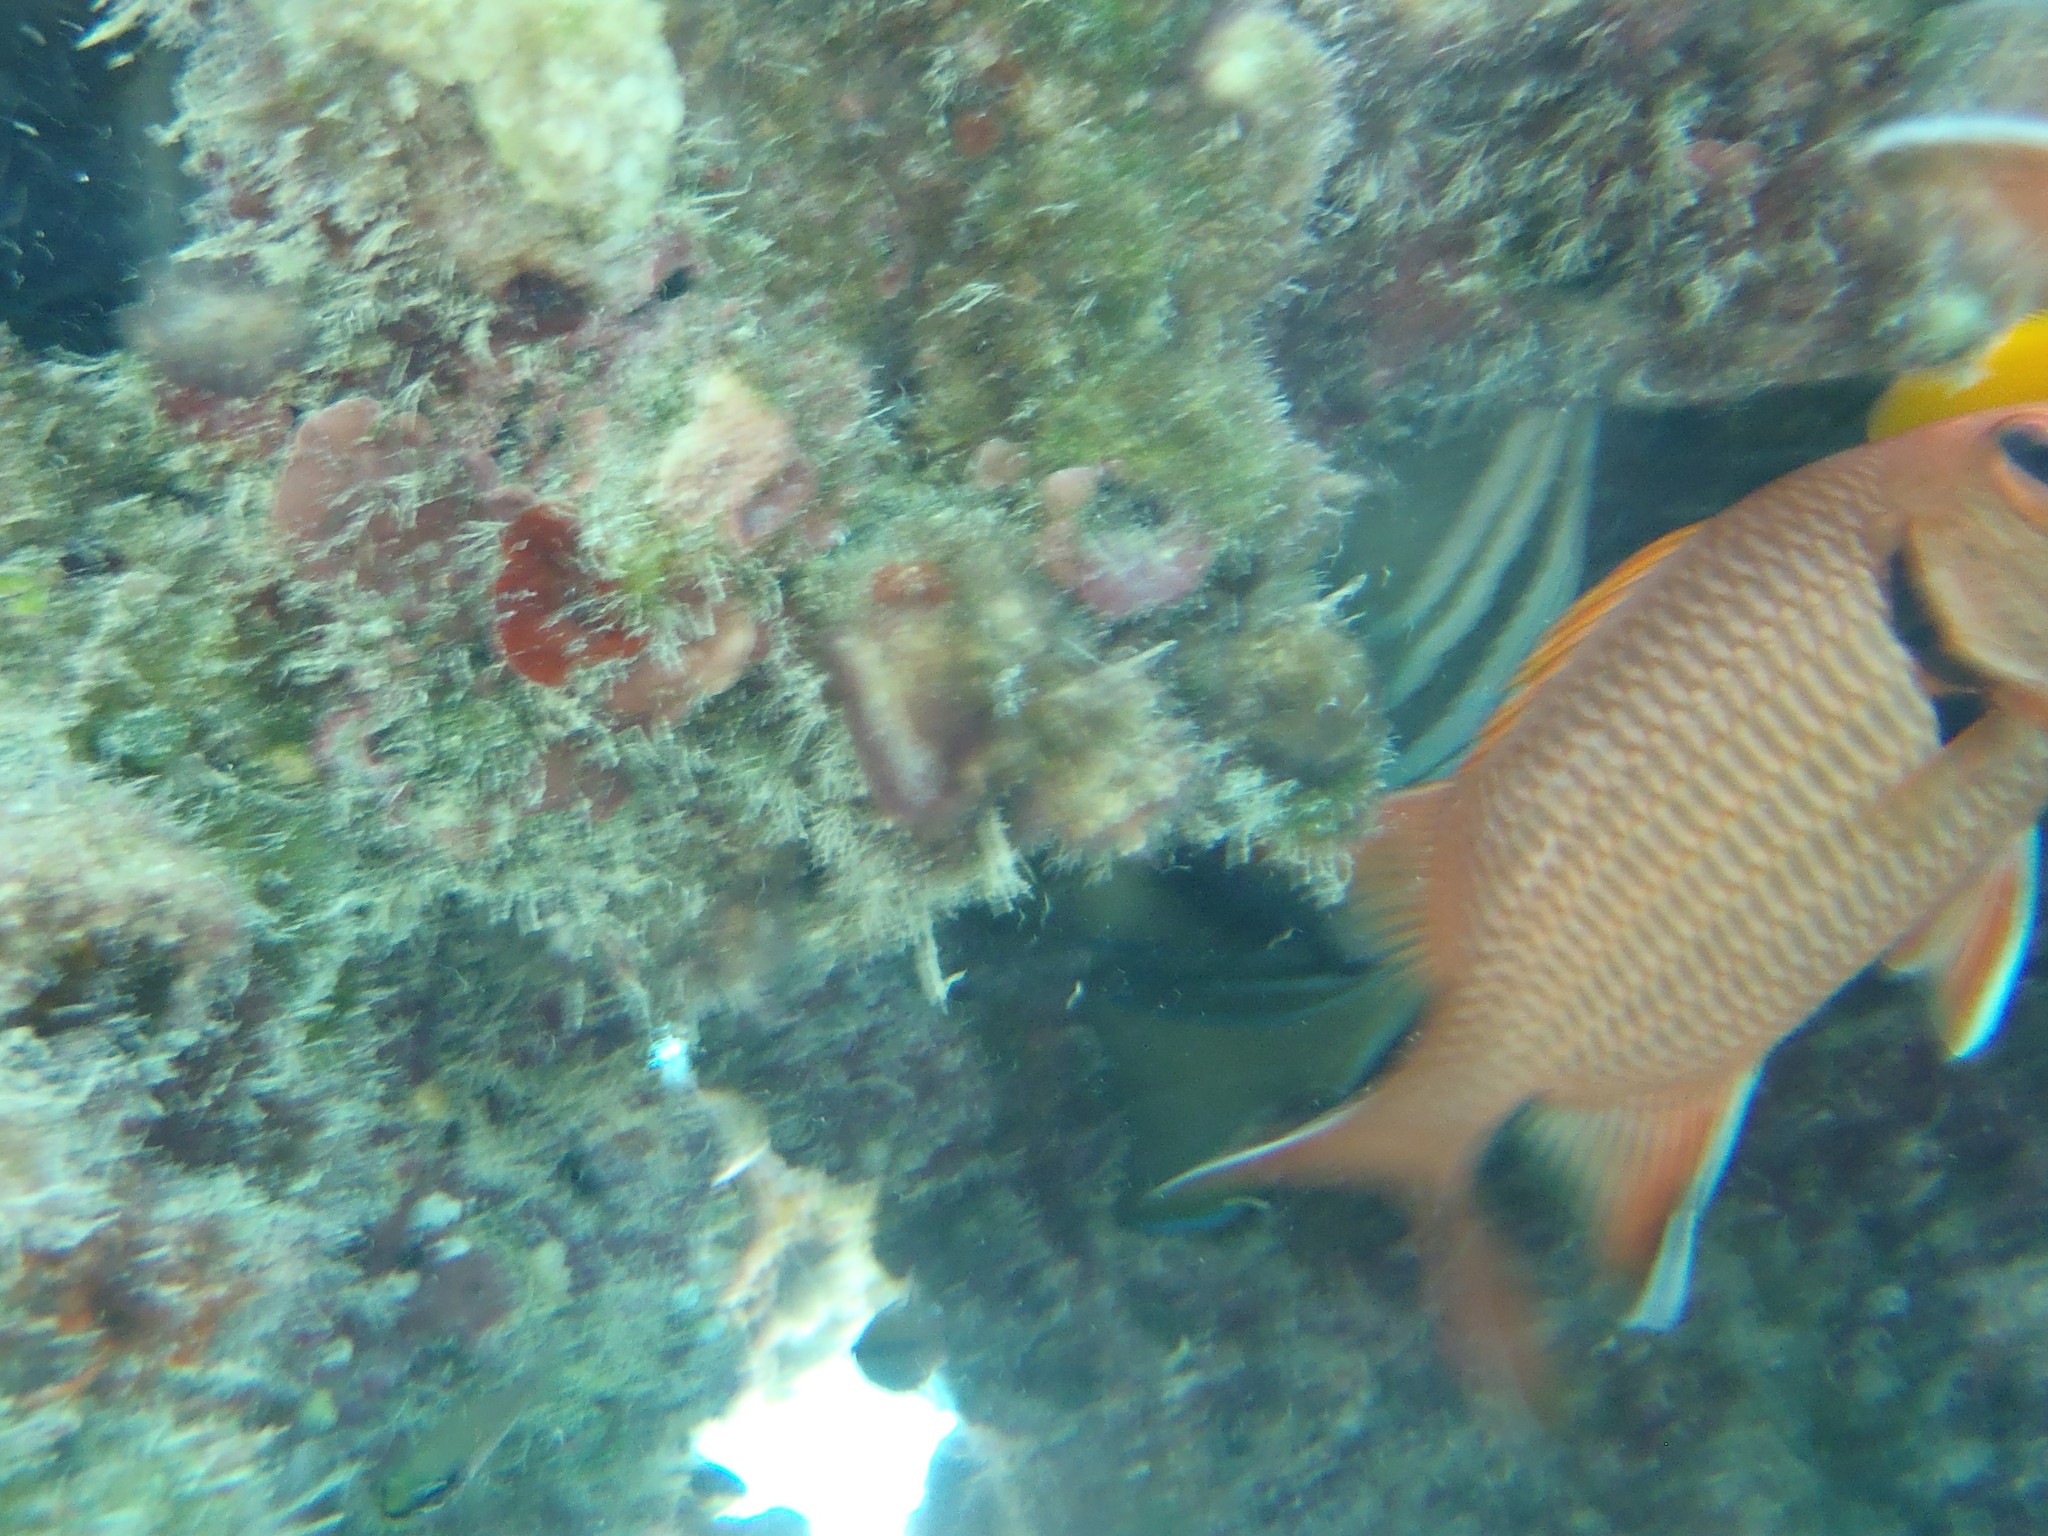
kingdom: Animalia
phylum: Chordata
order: Beryciformes
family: Holocentridae
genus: Myripristis
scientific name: Myripristis berndti
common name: Bigscale soldierfish
